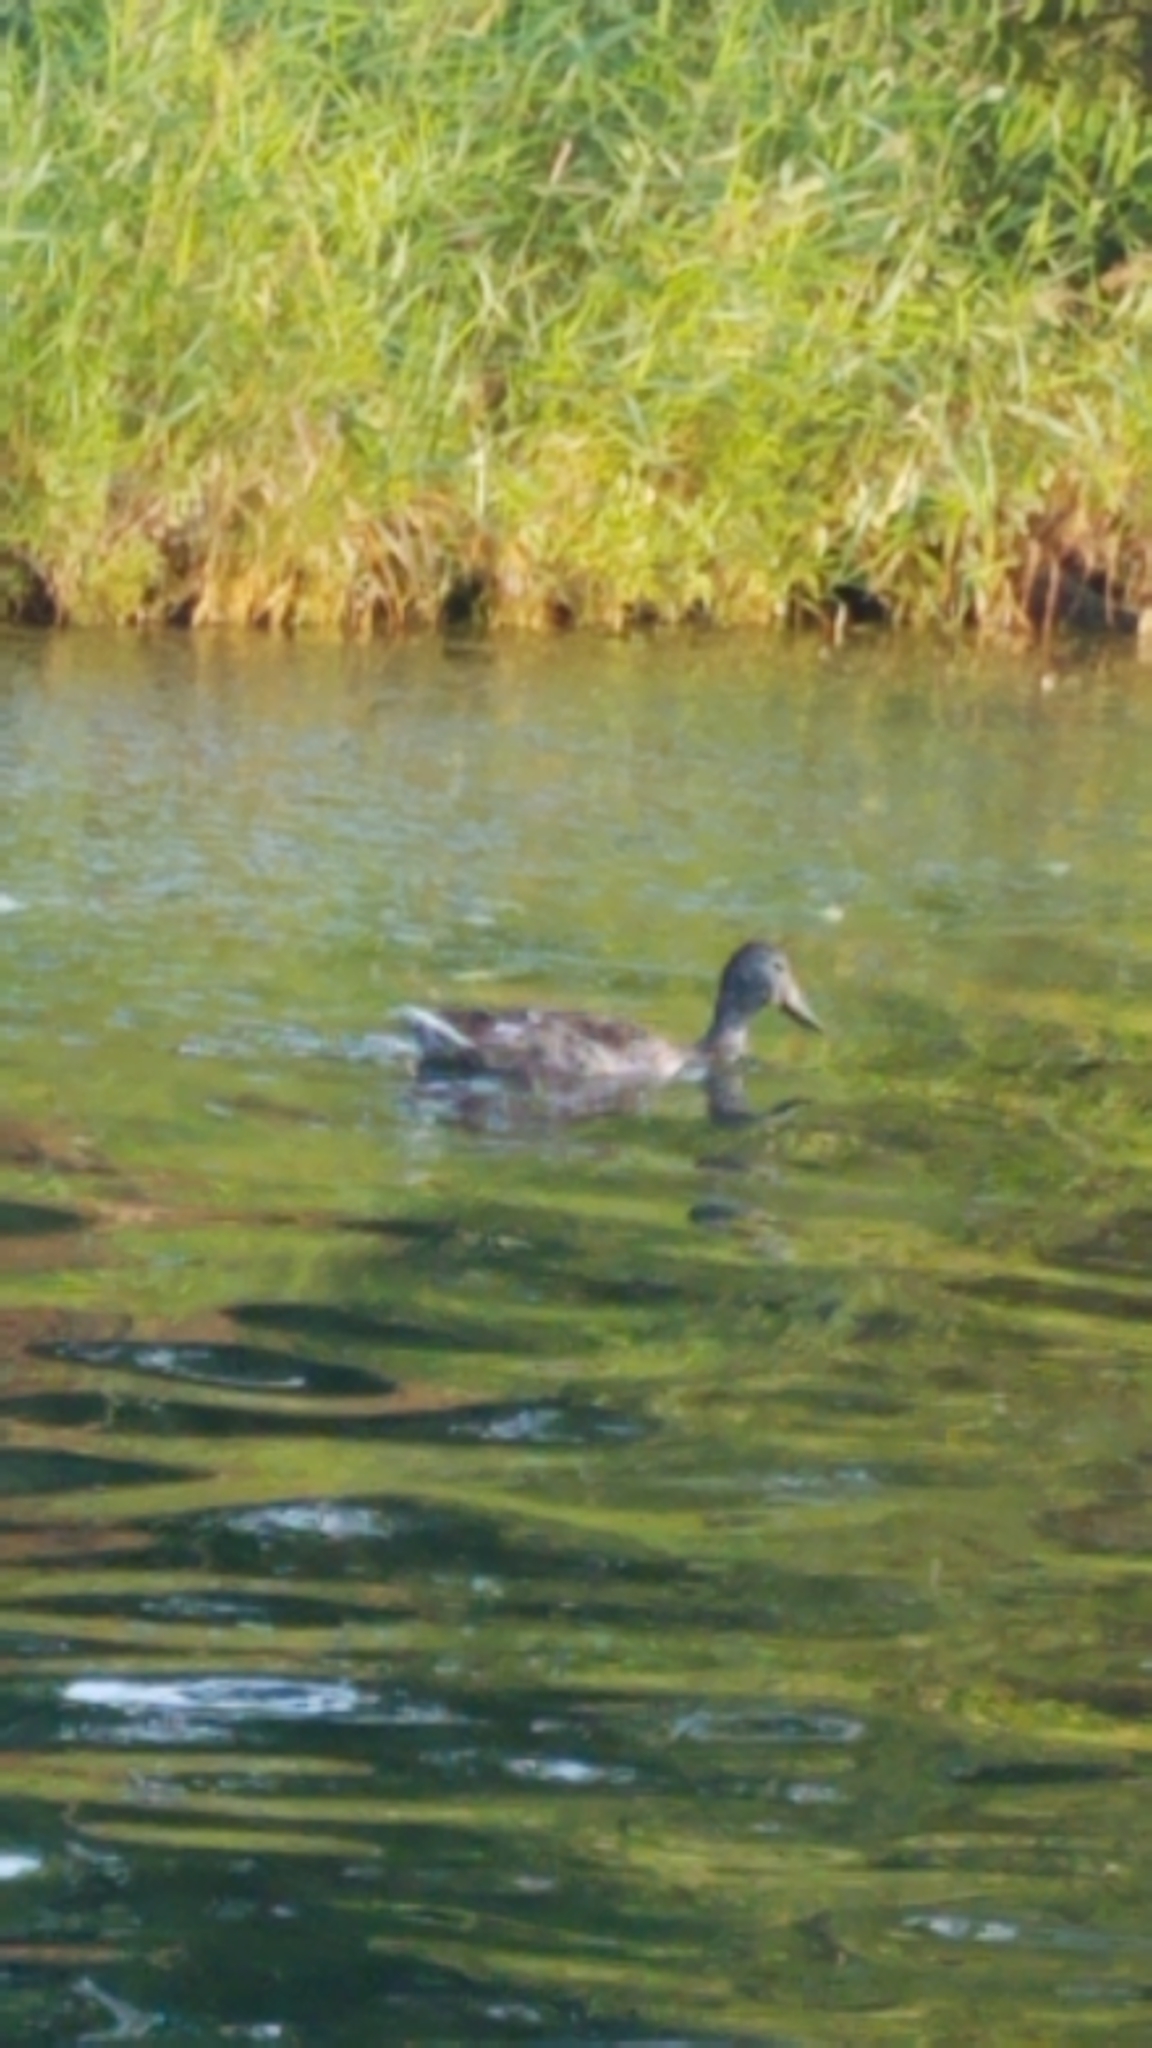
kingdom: Animalia
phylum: Chordata
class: Aves
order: Anseriformes
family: Anatidae
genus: Anas
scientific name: Anas platyrhynchos
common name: Mallard
